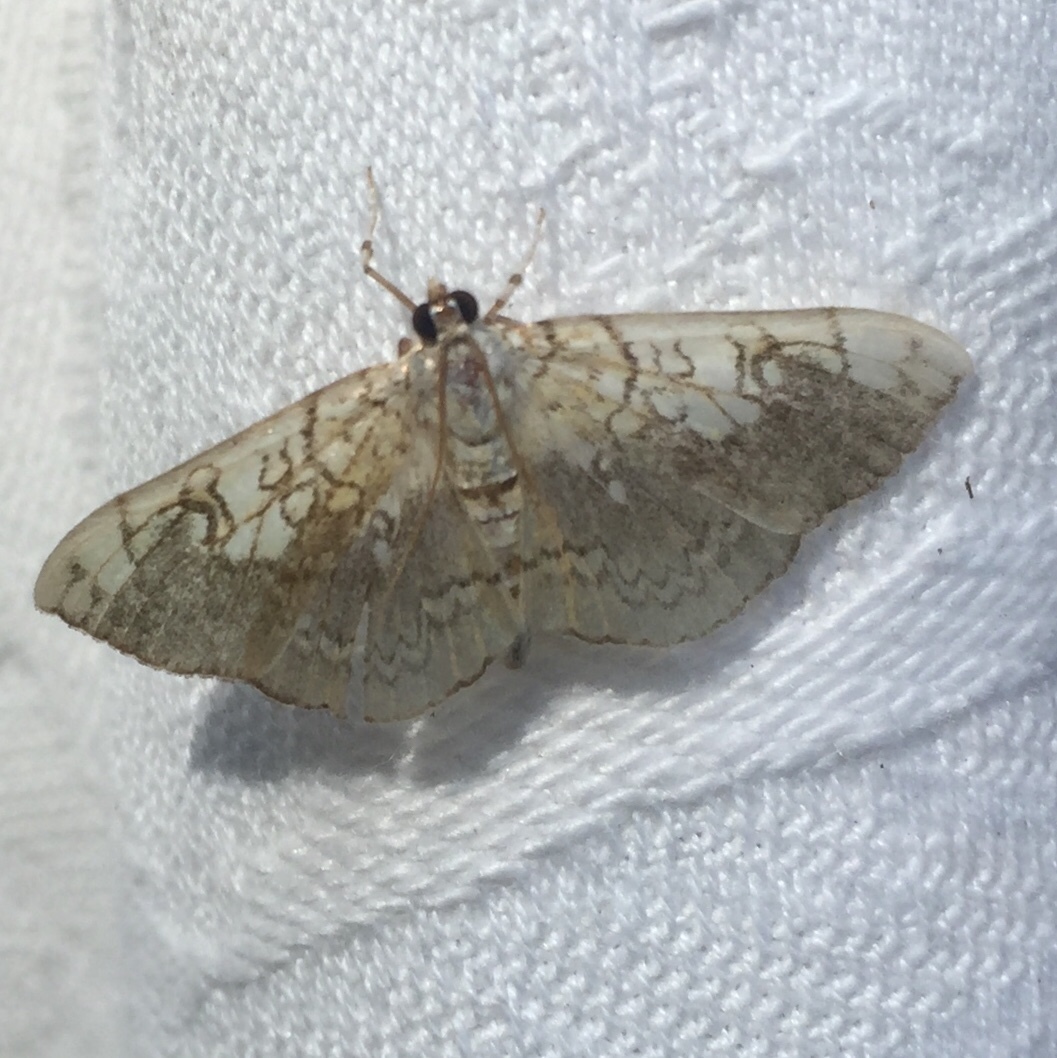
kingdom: Animalia
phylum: Arthropoda
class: Insecta
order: Lepidoptera
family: Crambidae
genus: Pantographa
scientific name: Pantographa limata
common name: Basswood leafroller moth
